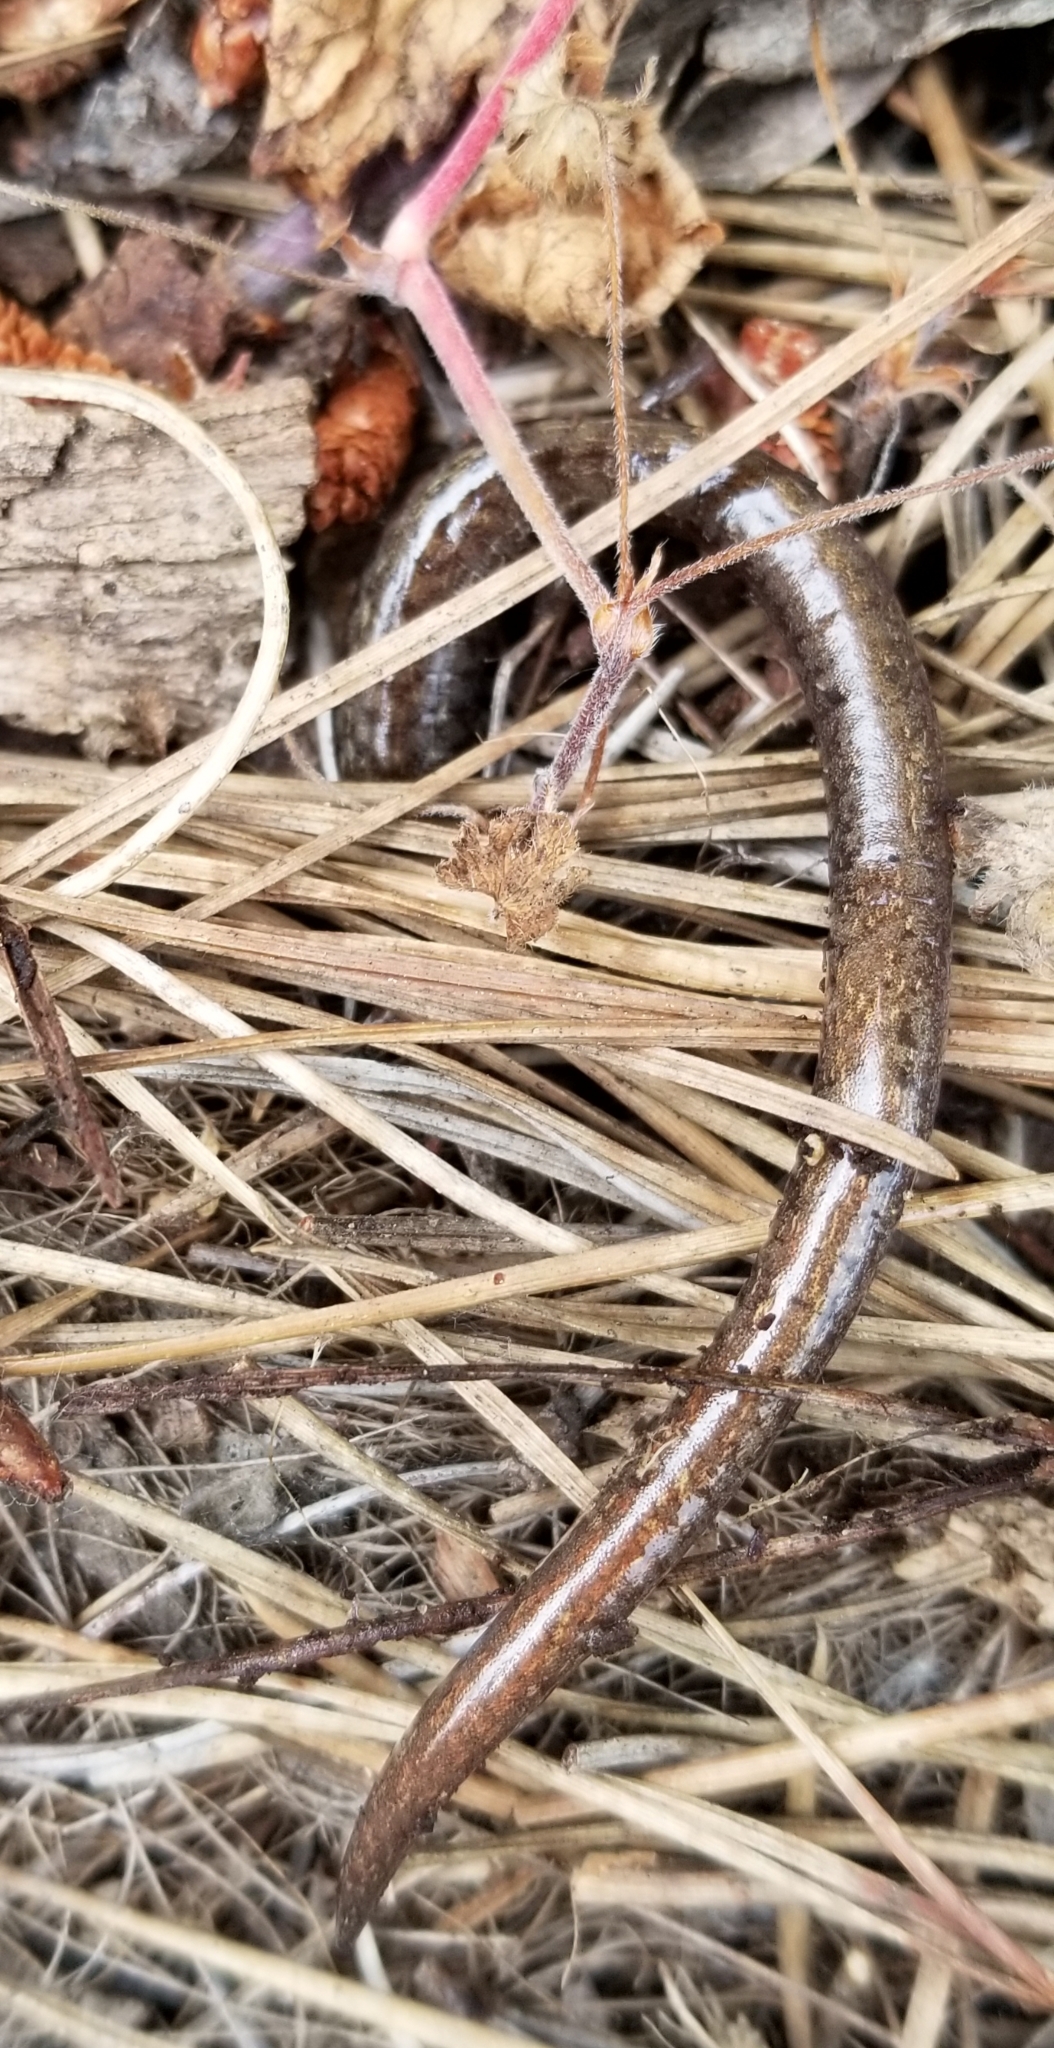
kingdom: Animalia
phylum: Chordata
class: Amphibia
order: Caudata
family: Plethodontidae
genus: Batrachoseps
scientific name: Batrachoseps attenuatus
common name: California slender salamander
